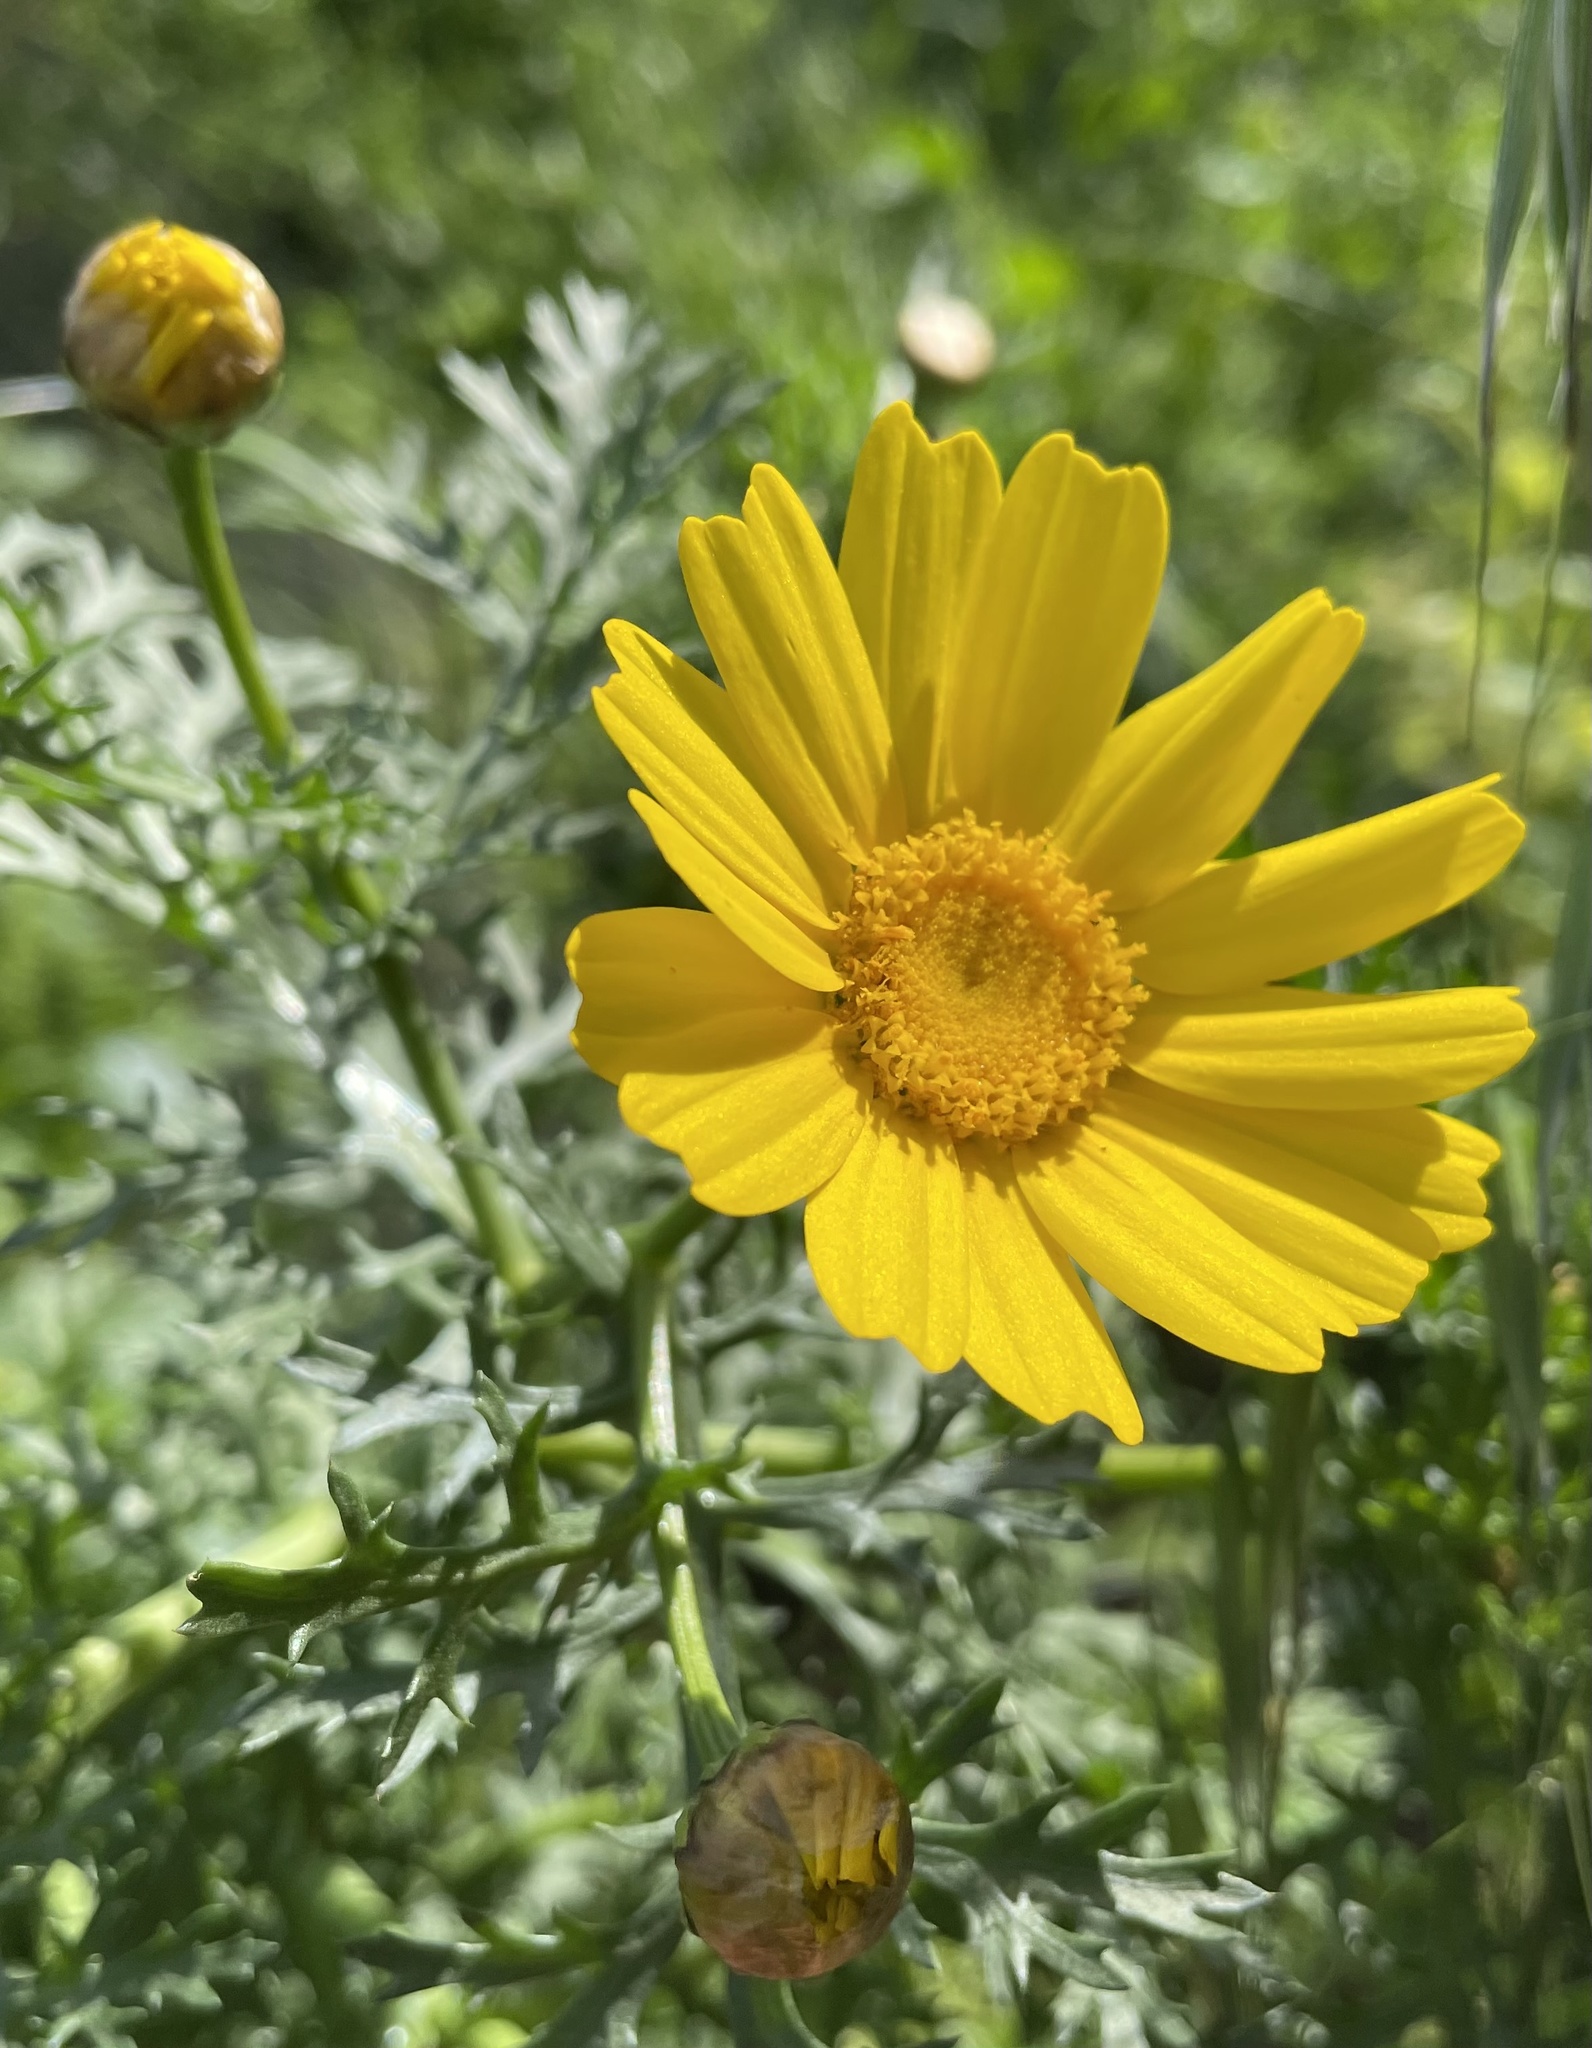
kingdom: Plantae
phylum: Tracheophyta
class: Magnoliopsida
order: Asterales
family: Asteraceae
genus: Glebionis
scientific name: Glebionis coronaria
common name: Crowndaisy
